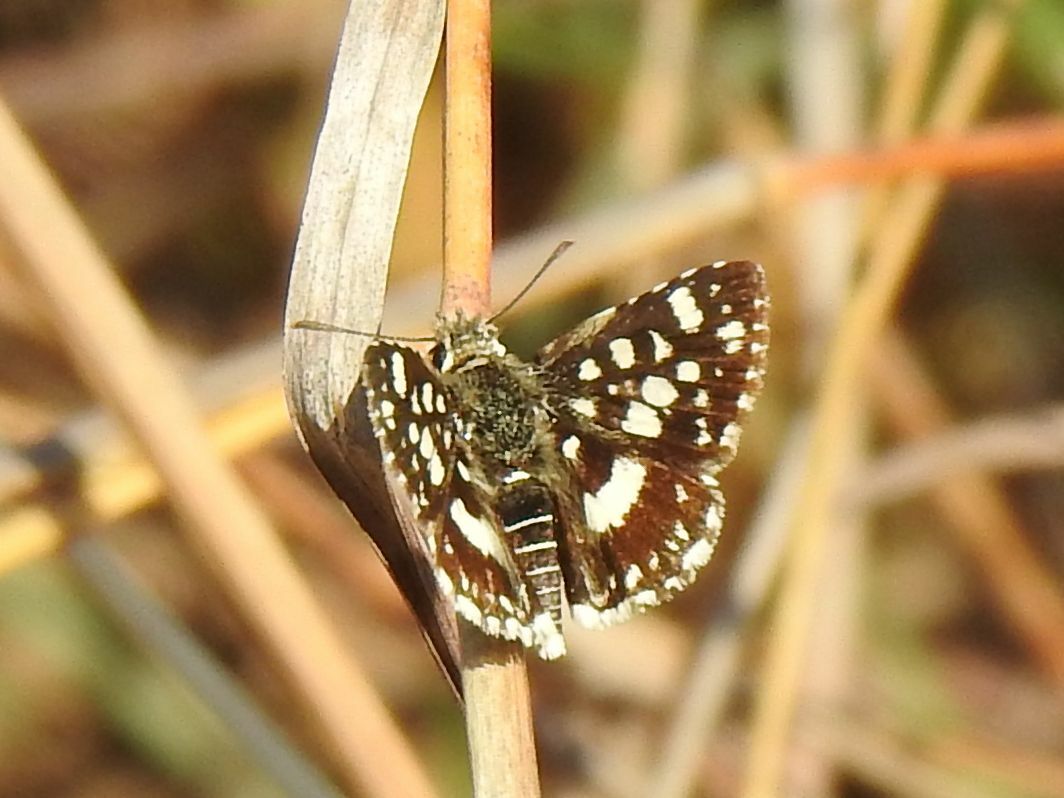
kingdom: Animalia
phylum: Arthropoda
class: Insecta
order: Lepidoptera
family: Hesperiidae
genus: Spialia
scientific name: Spialia diomus
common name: Common sandman
